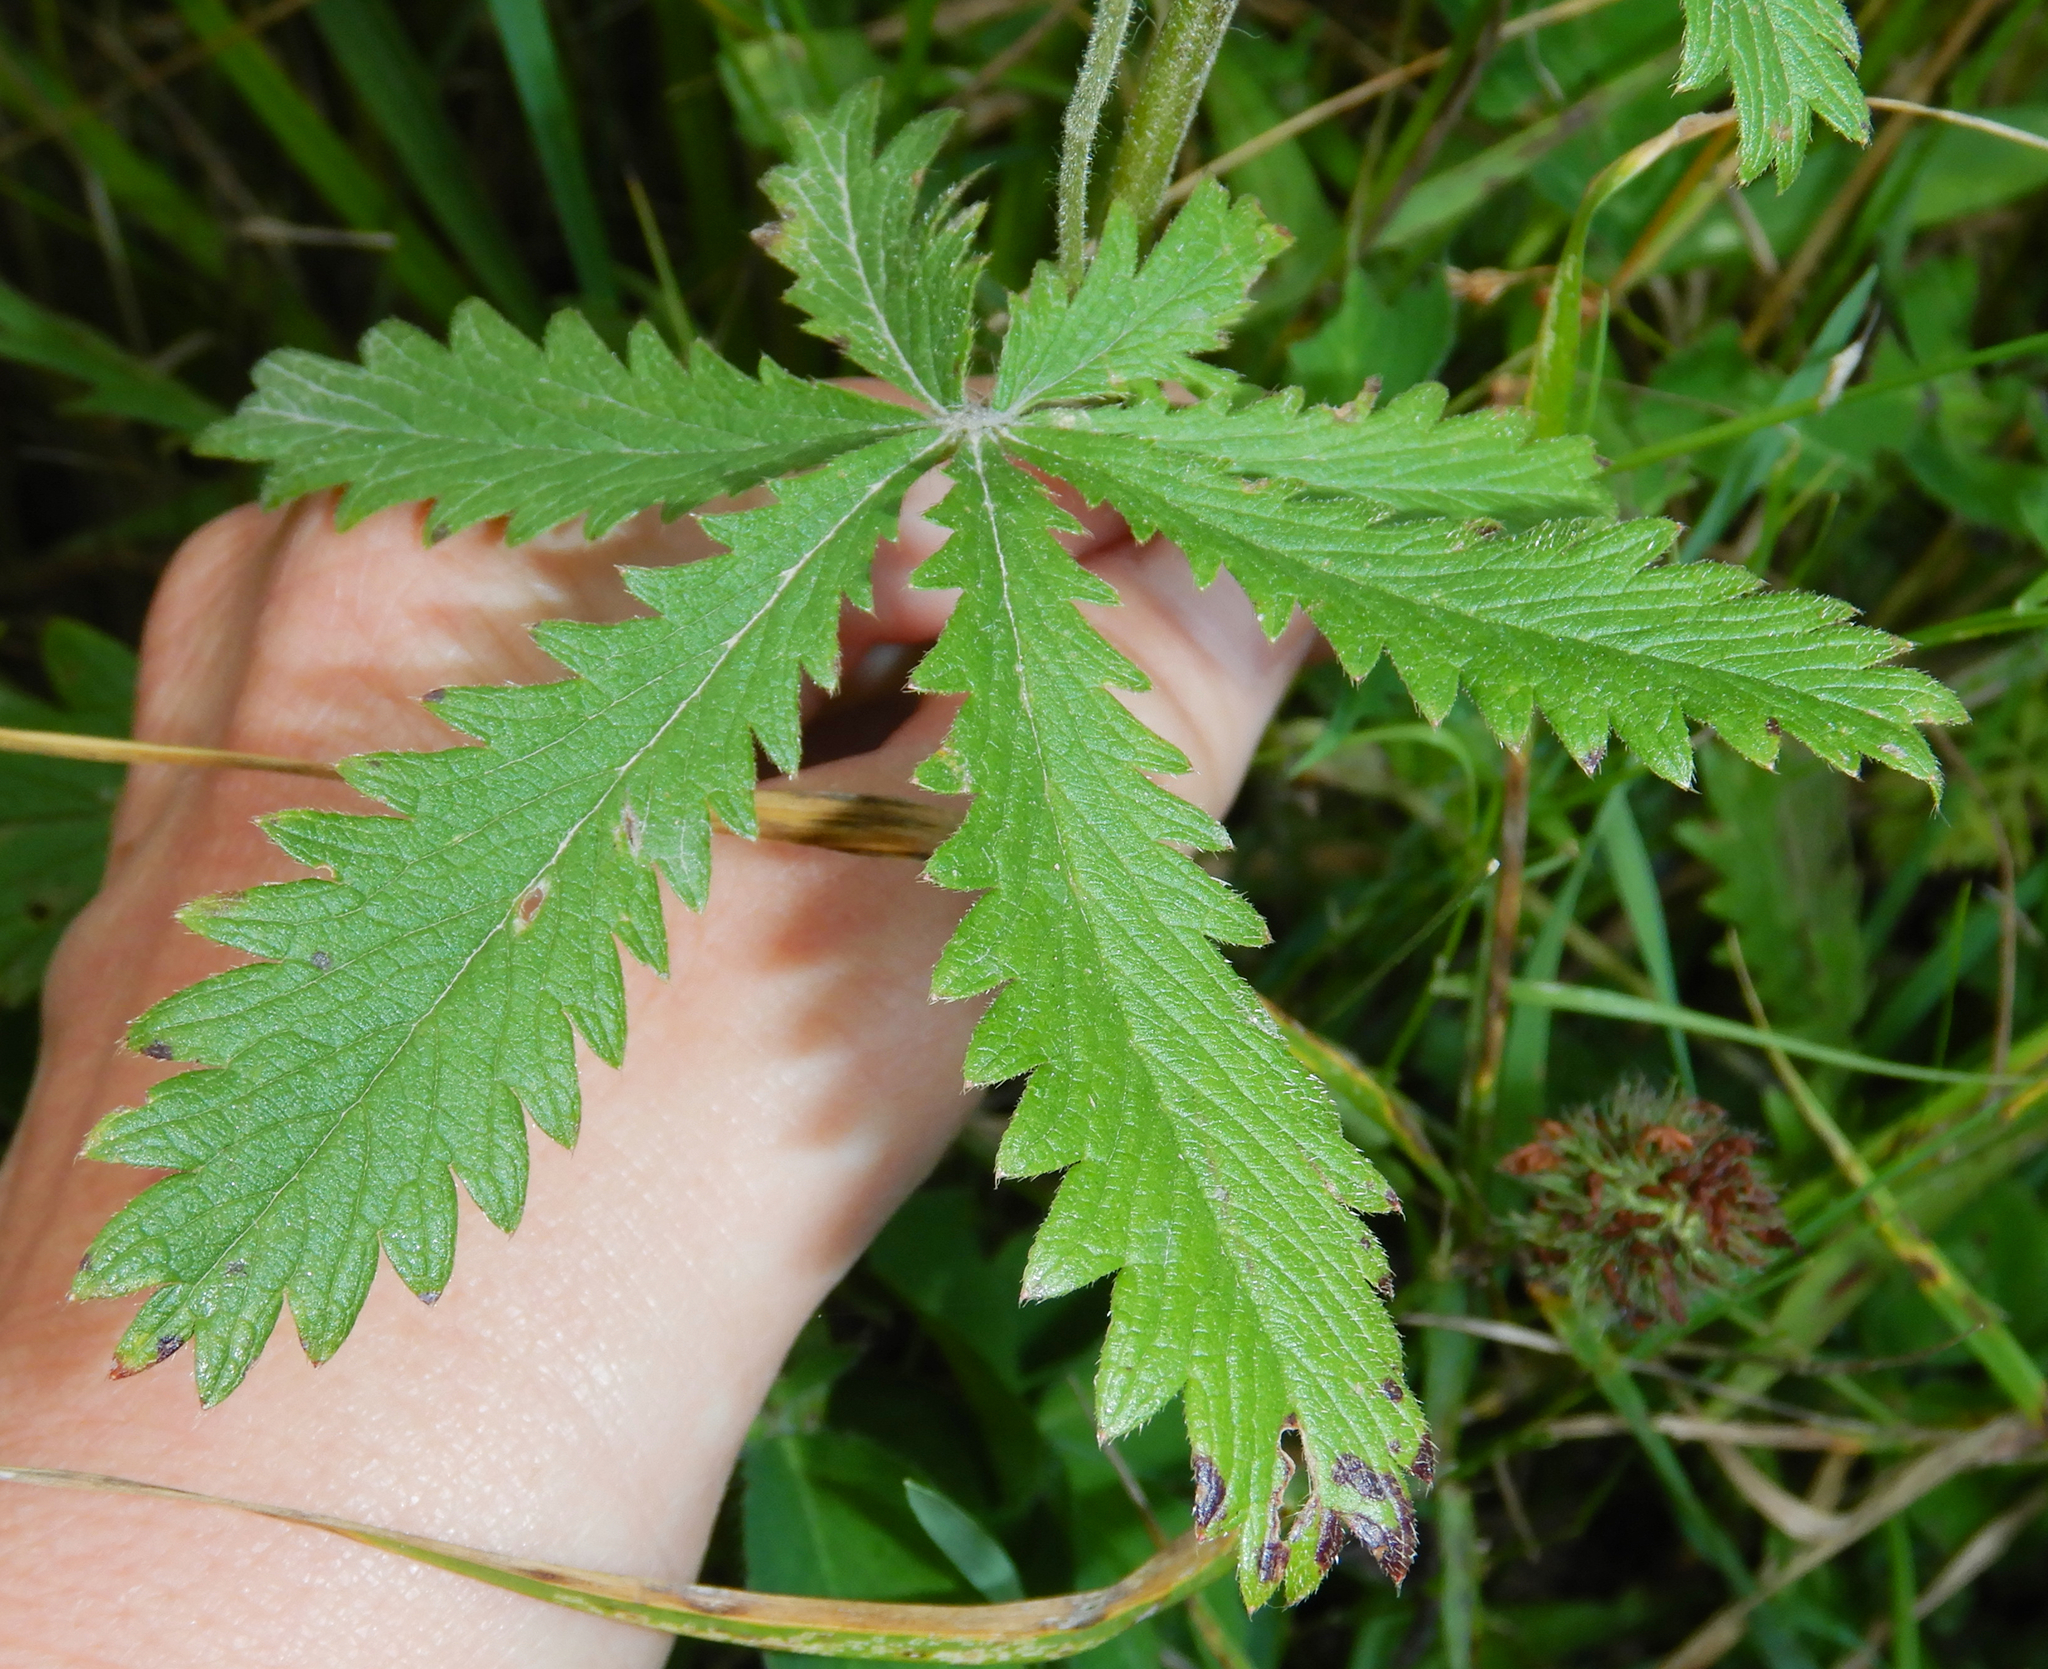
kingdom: Plantae
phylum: Tracheophyta
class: Magnoliopsida
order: Rosales
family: Rosaceae
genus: Potentilla
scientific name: Potentilla recta
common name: Sulphur cinquefoil
